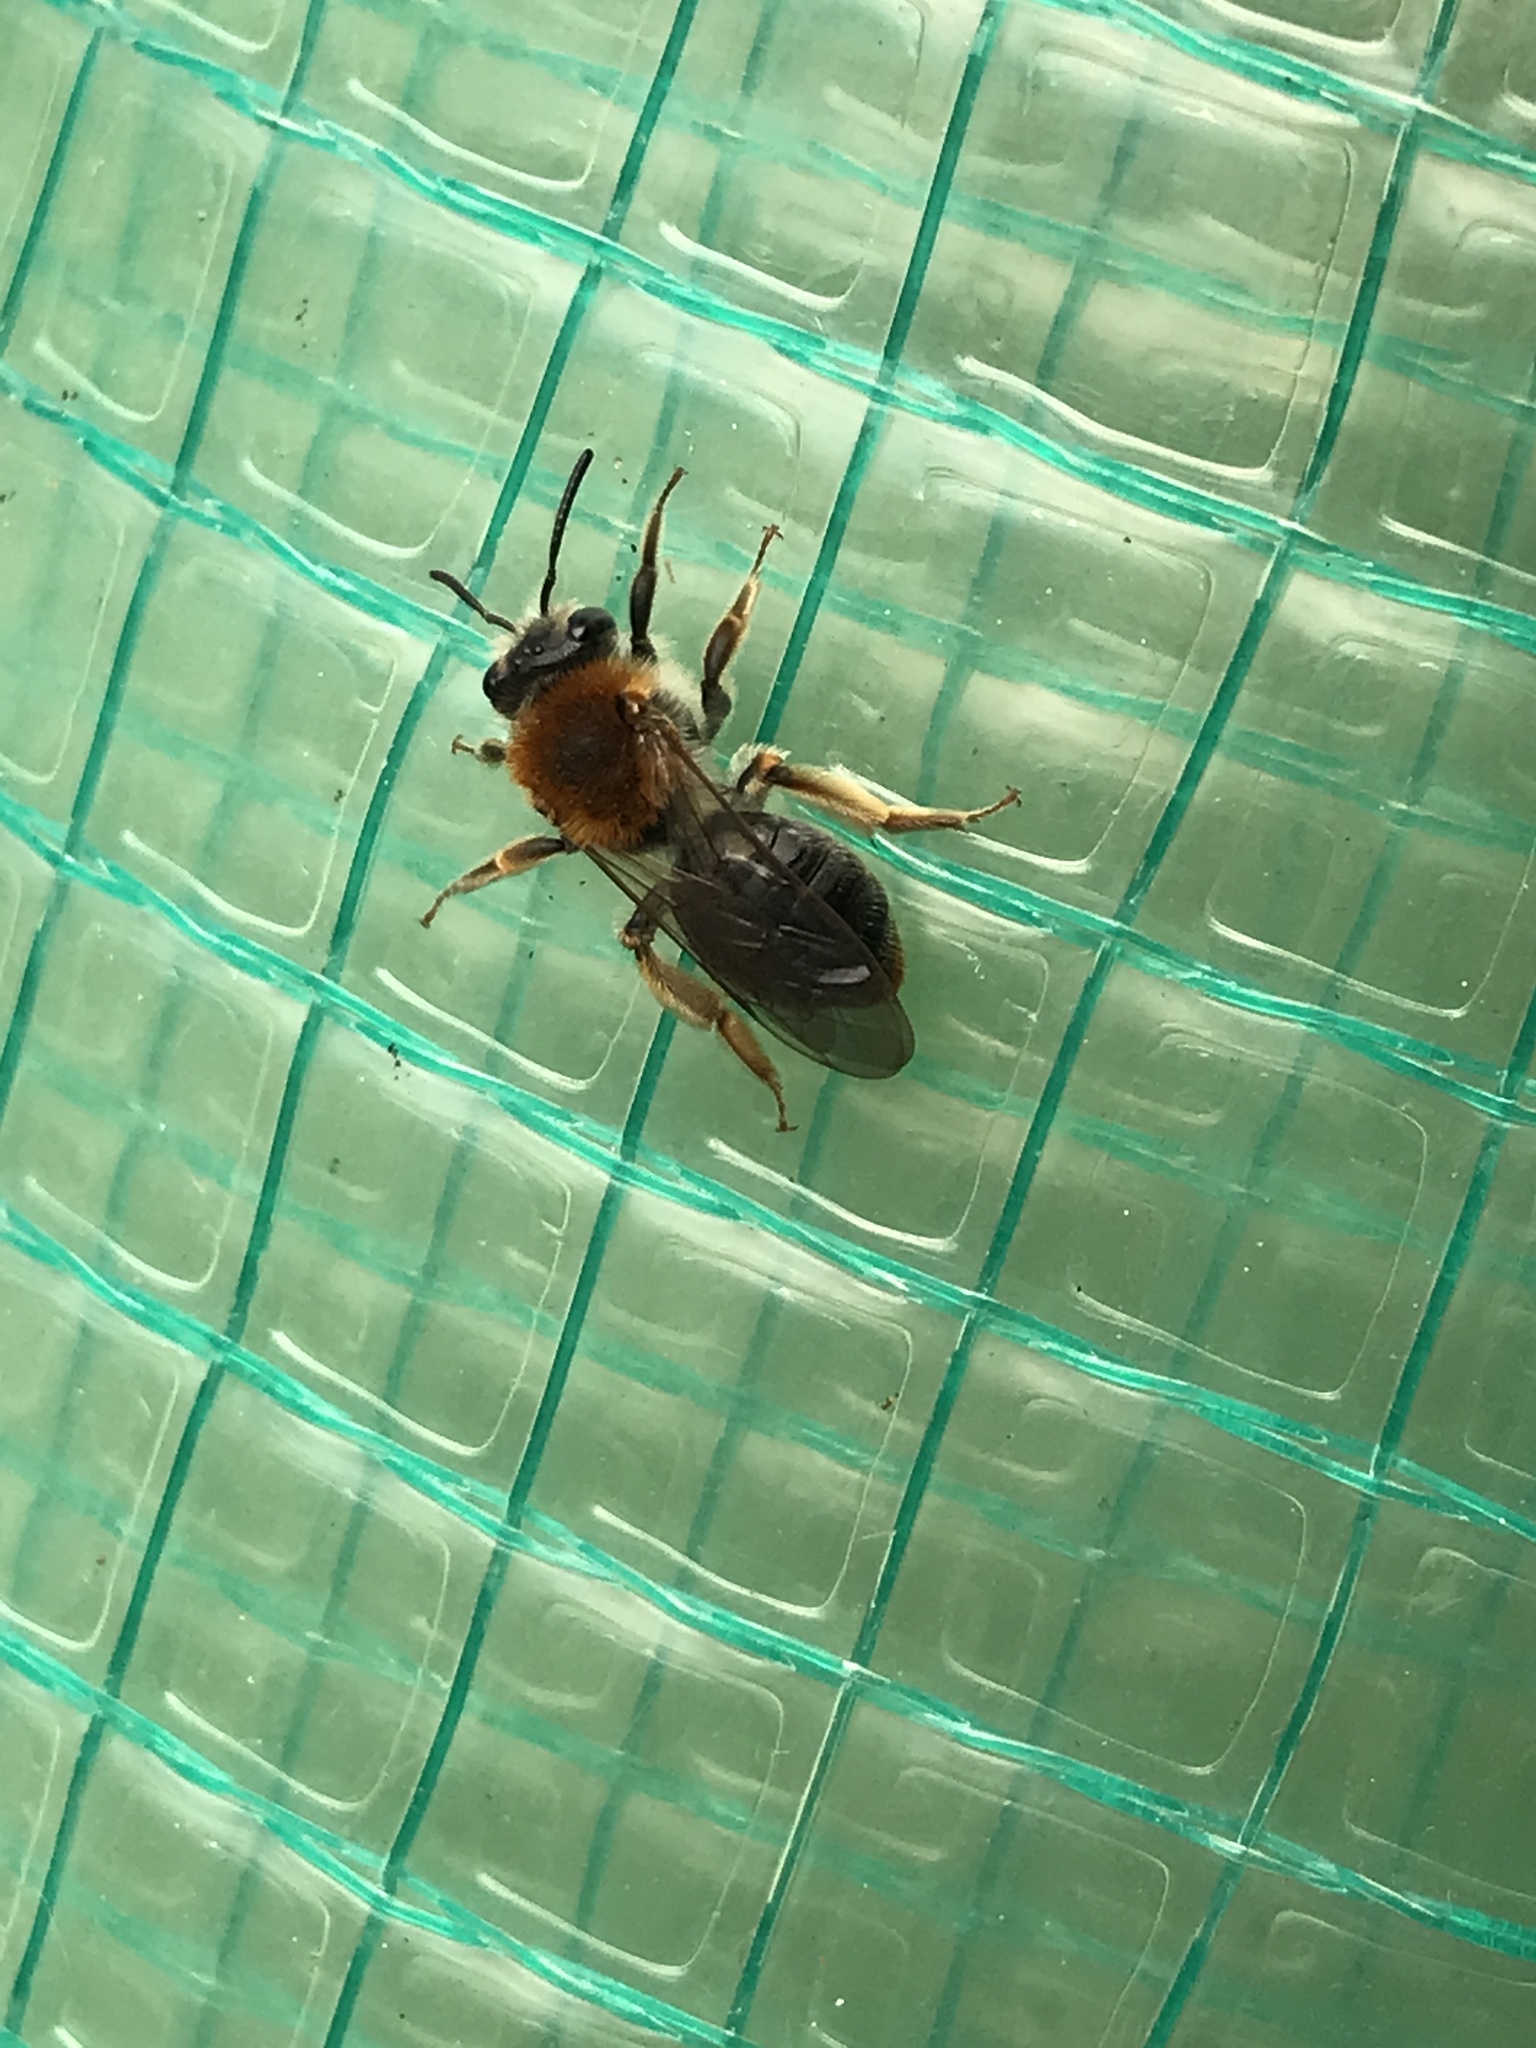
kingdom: Animalia
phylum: Arthropoda
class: Insecta
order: Hymenoptera
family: Andrenidae
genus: Andrena
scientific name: Andrena haemorrhoa
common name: Early mining bee
